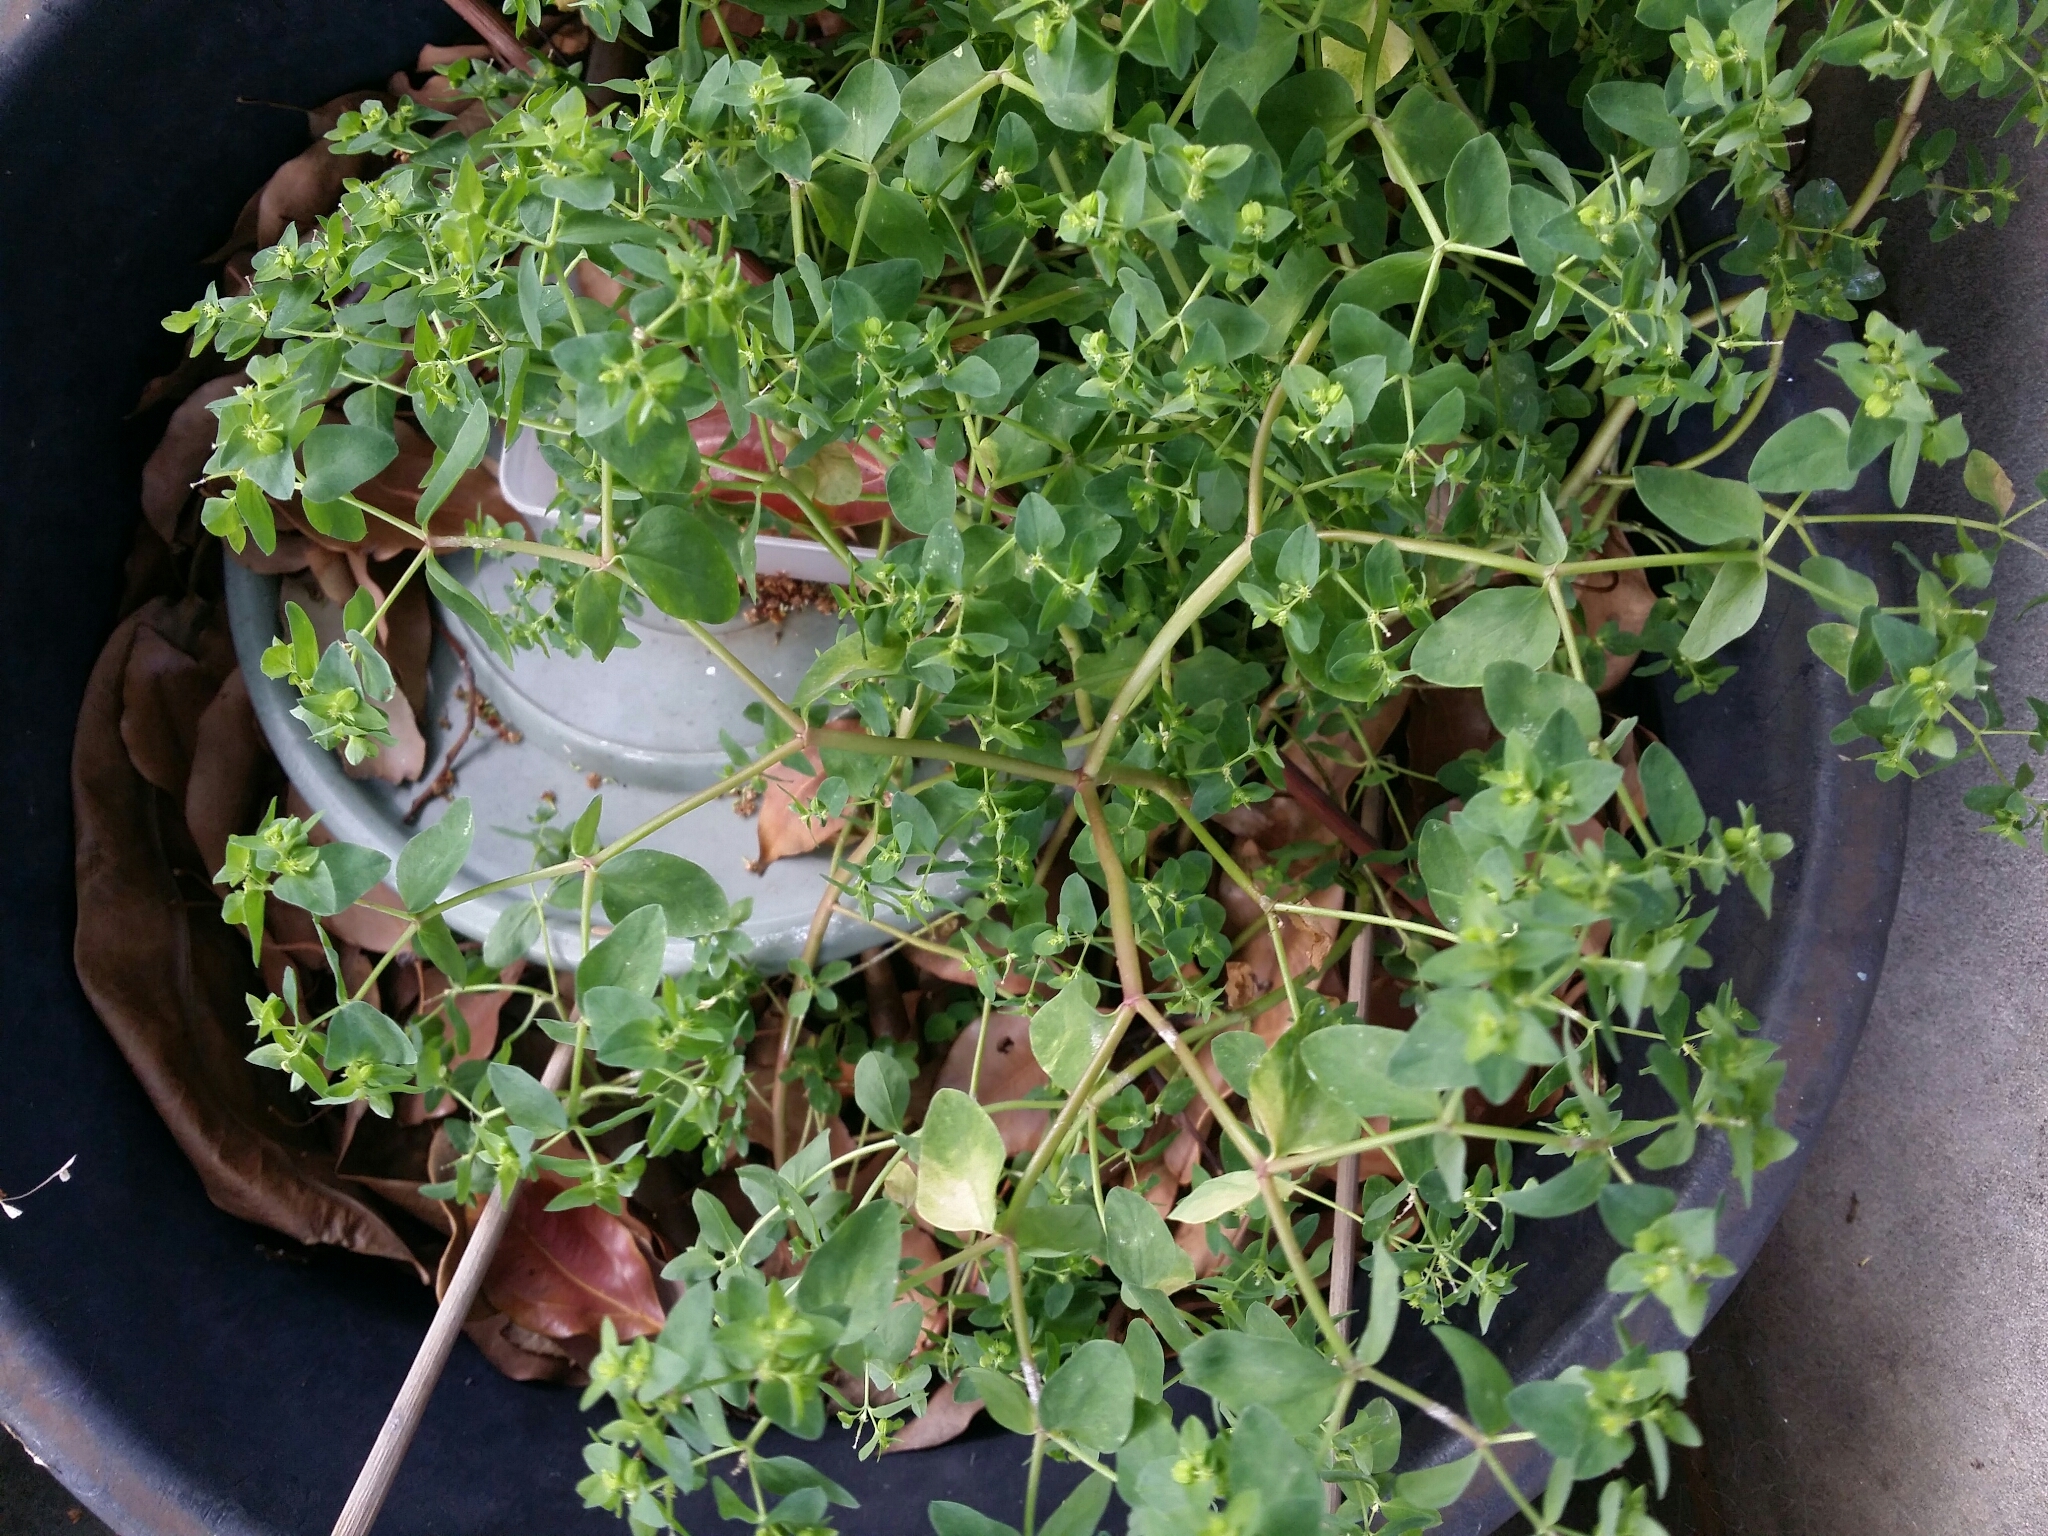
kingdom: Plantae
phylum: Tracheophyta
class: Magnoliopsida
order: Malpighiales
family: Euphorbiaceae
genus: Euphorbia
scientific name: Euphorbia peplus
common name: Petty spurge
